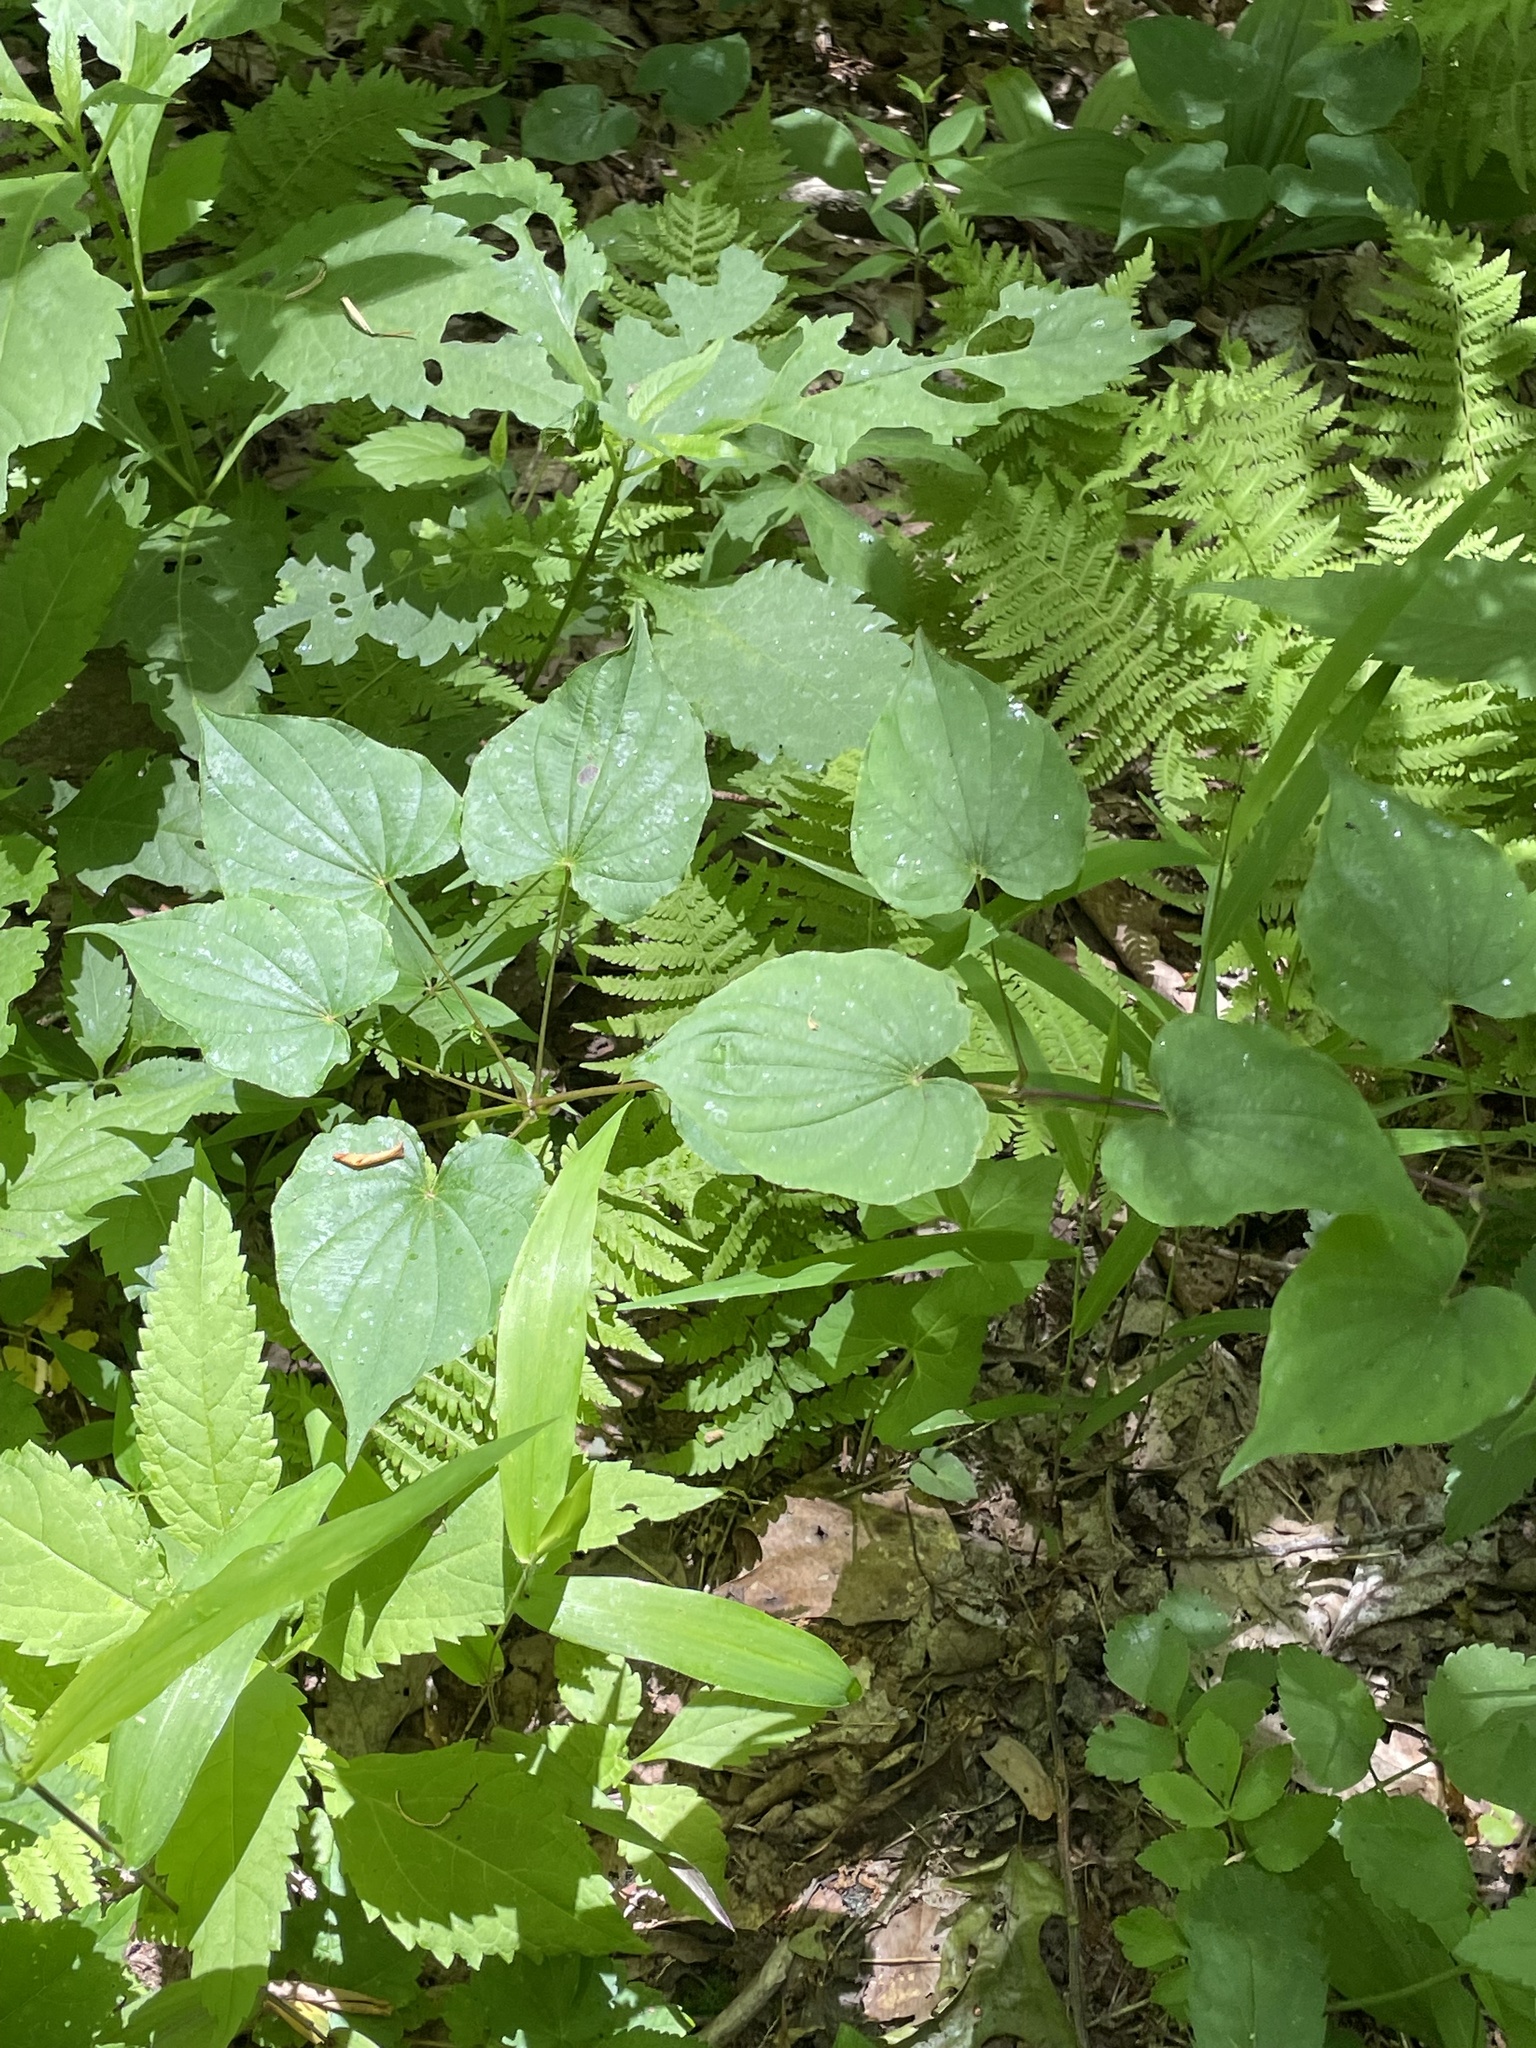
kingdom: Plantae
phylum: Tracheophyta
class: Liliopsida
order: Dioscoreales
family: Dioscoreaceae
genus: Dioscorea
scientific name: Dioscorea villosa
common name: Wild yam
